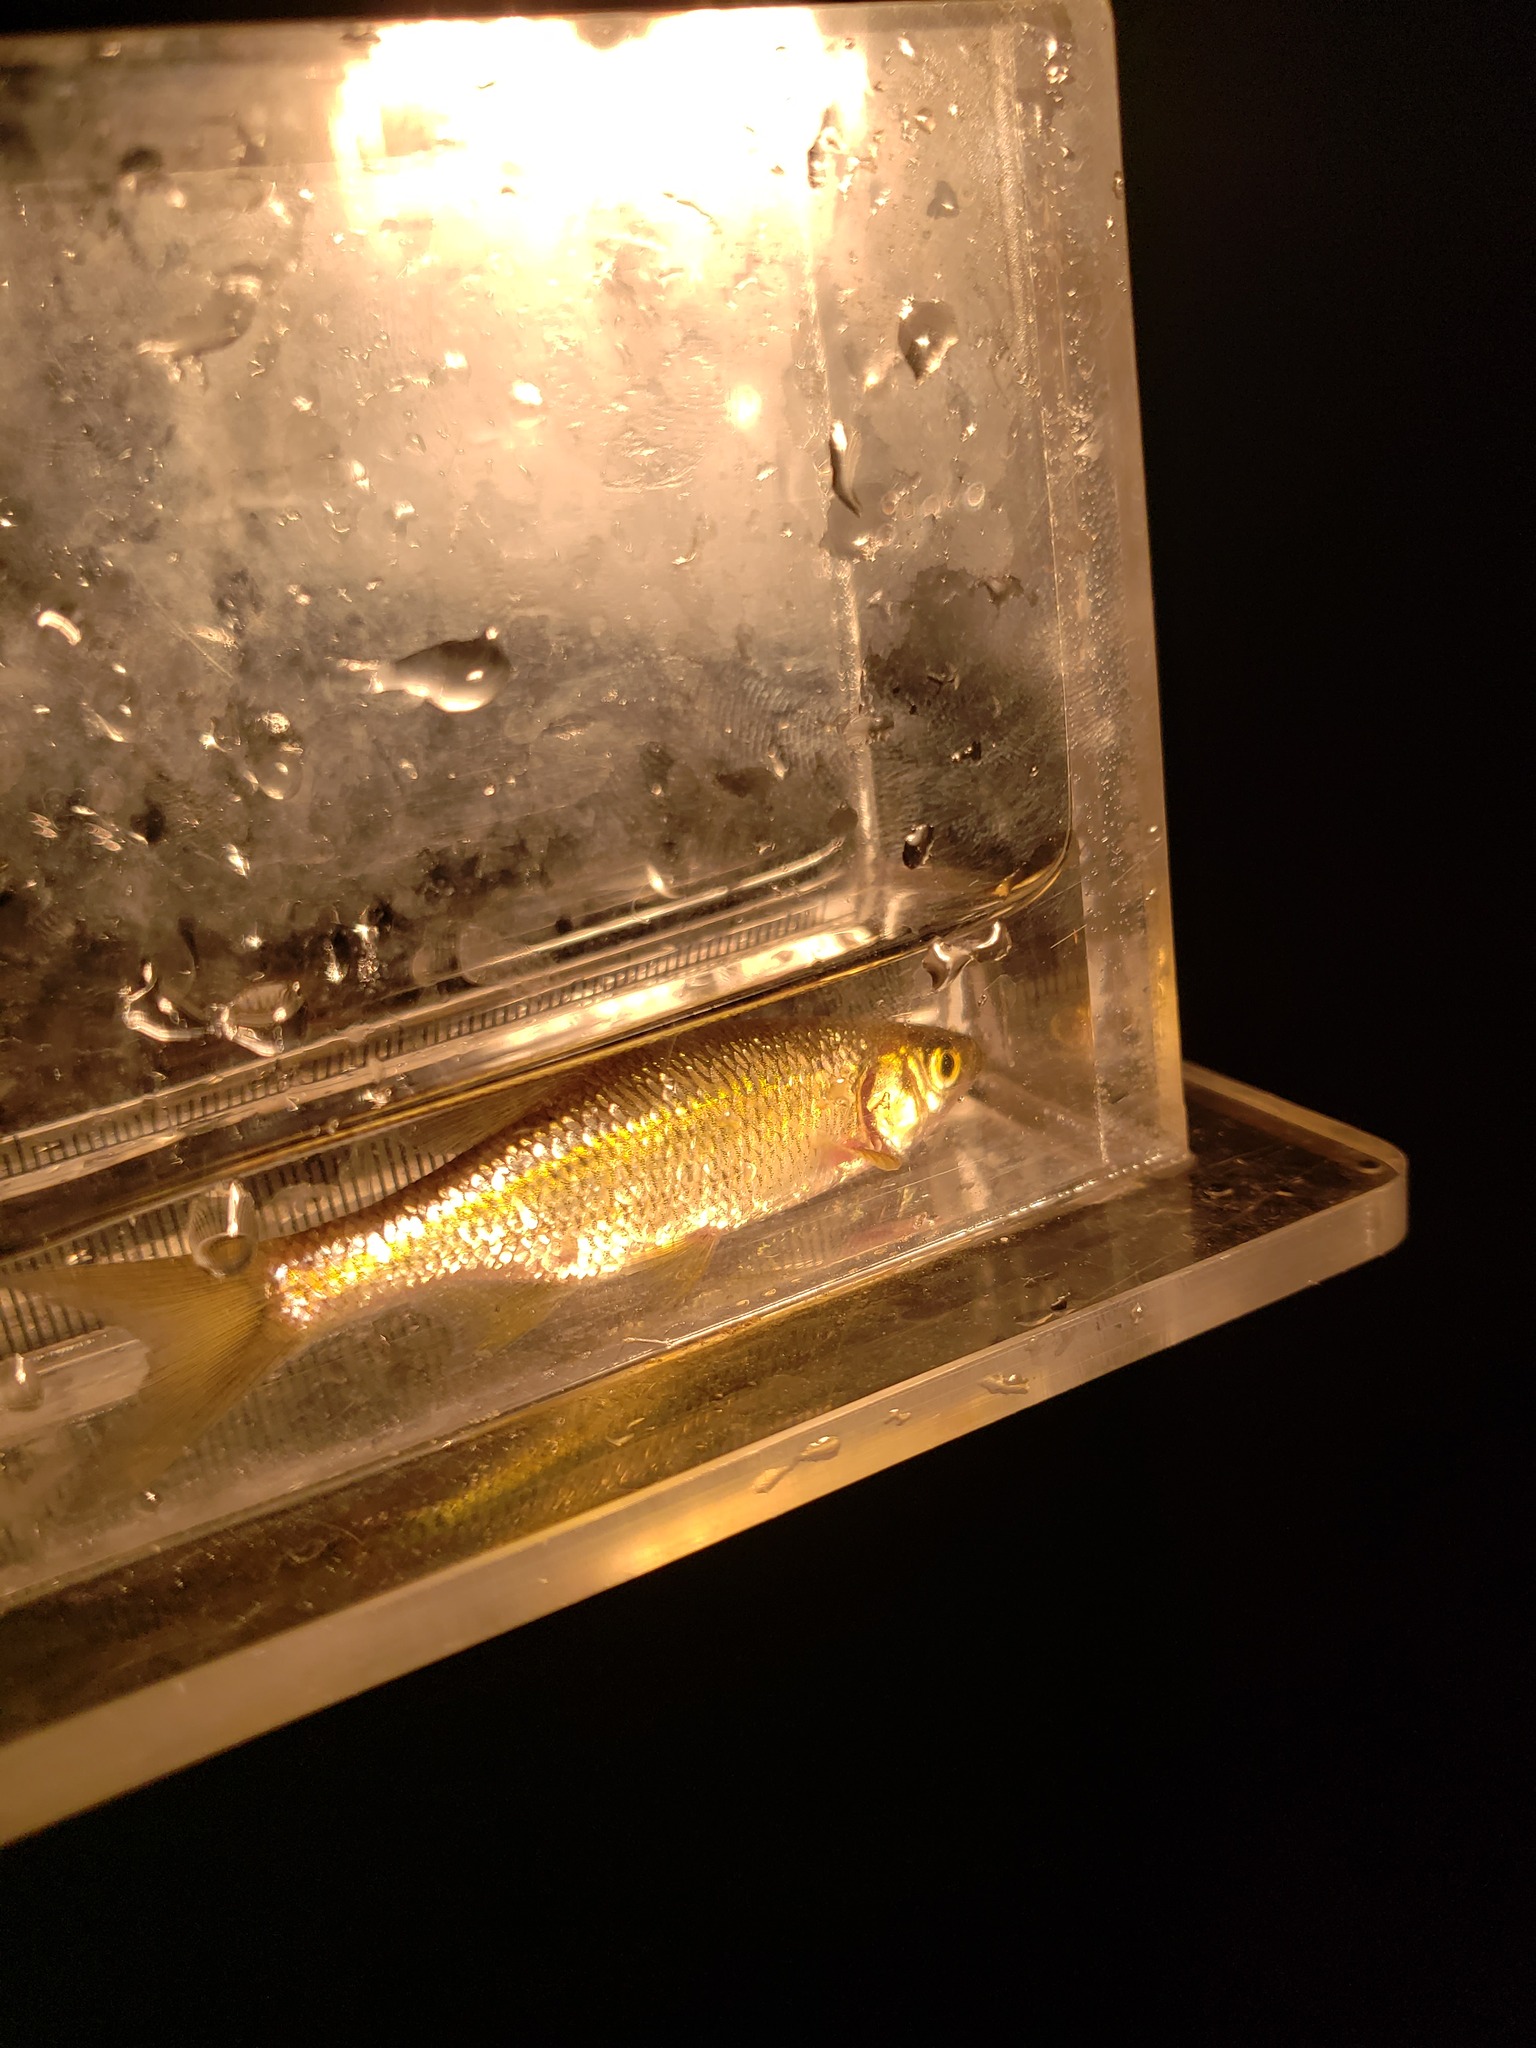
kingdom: Animalia
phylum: Chordata
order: Cypriniformes
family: Cyprinidae
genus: Notemigonus
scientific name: Notemigonus crysoleucas
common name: Golden shiner
